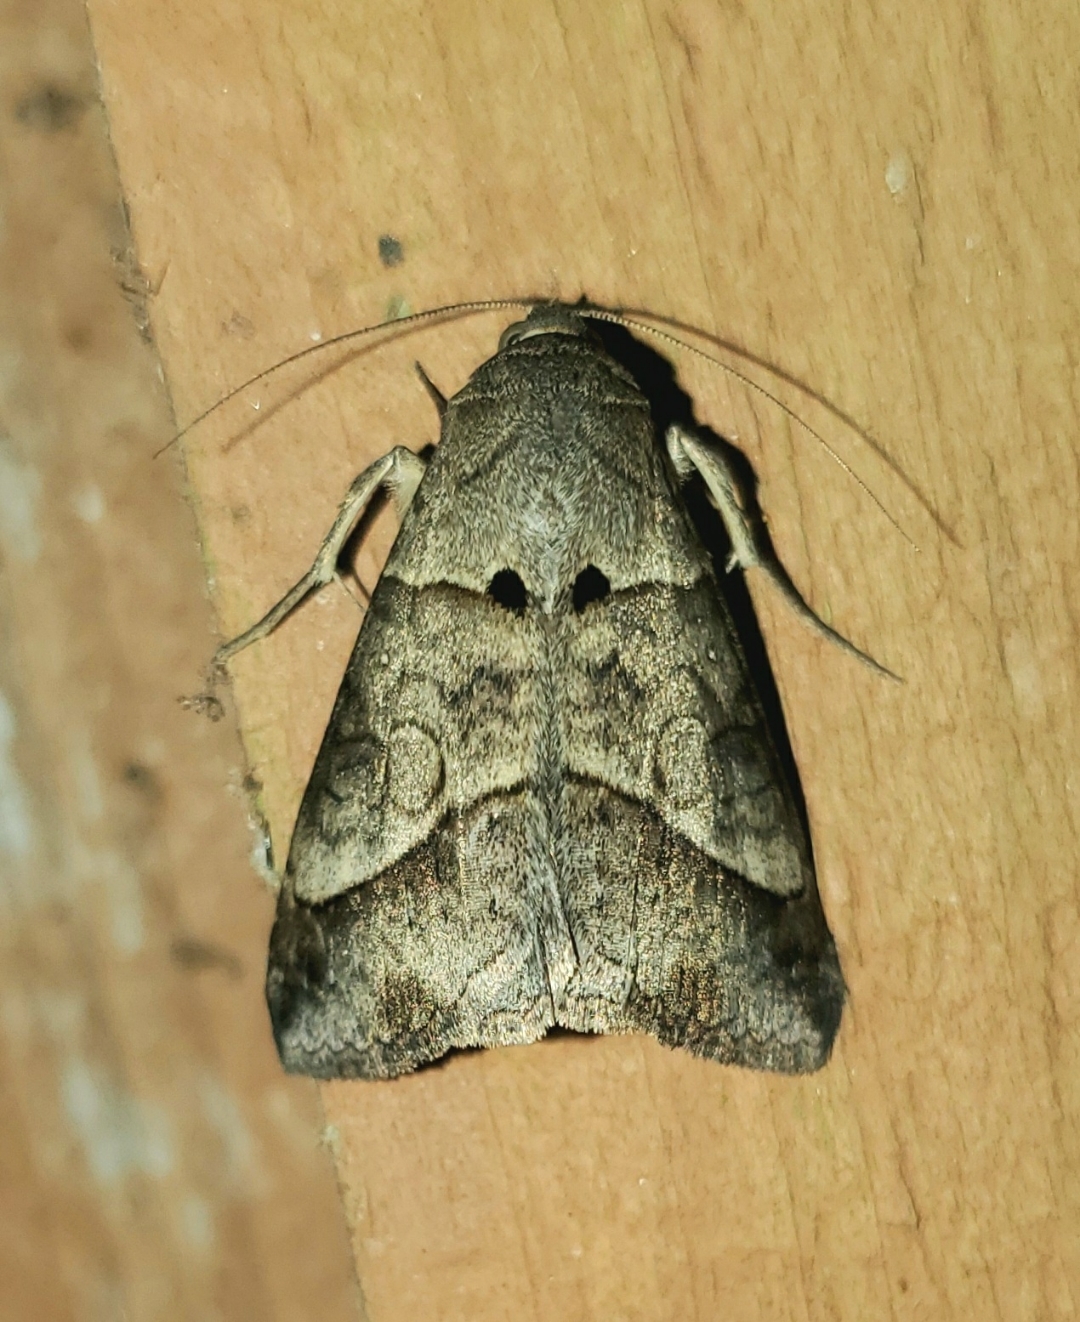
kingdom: Animalia
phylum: Arthropoda
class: Insecta
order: Lepidoptera
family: Erebidae
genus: Mocis
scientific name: Mocis latipes
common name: Striped grass looper
